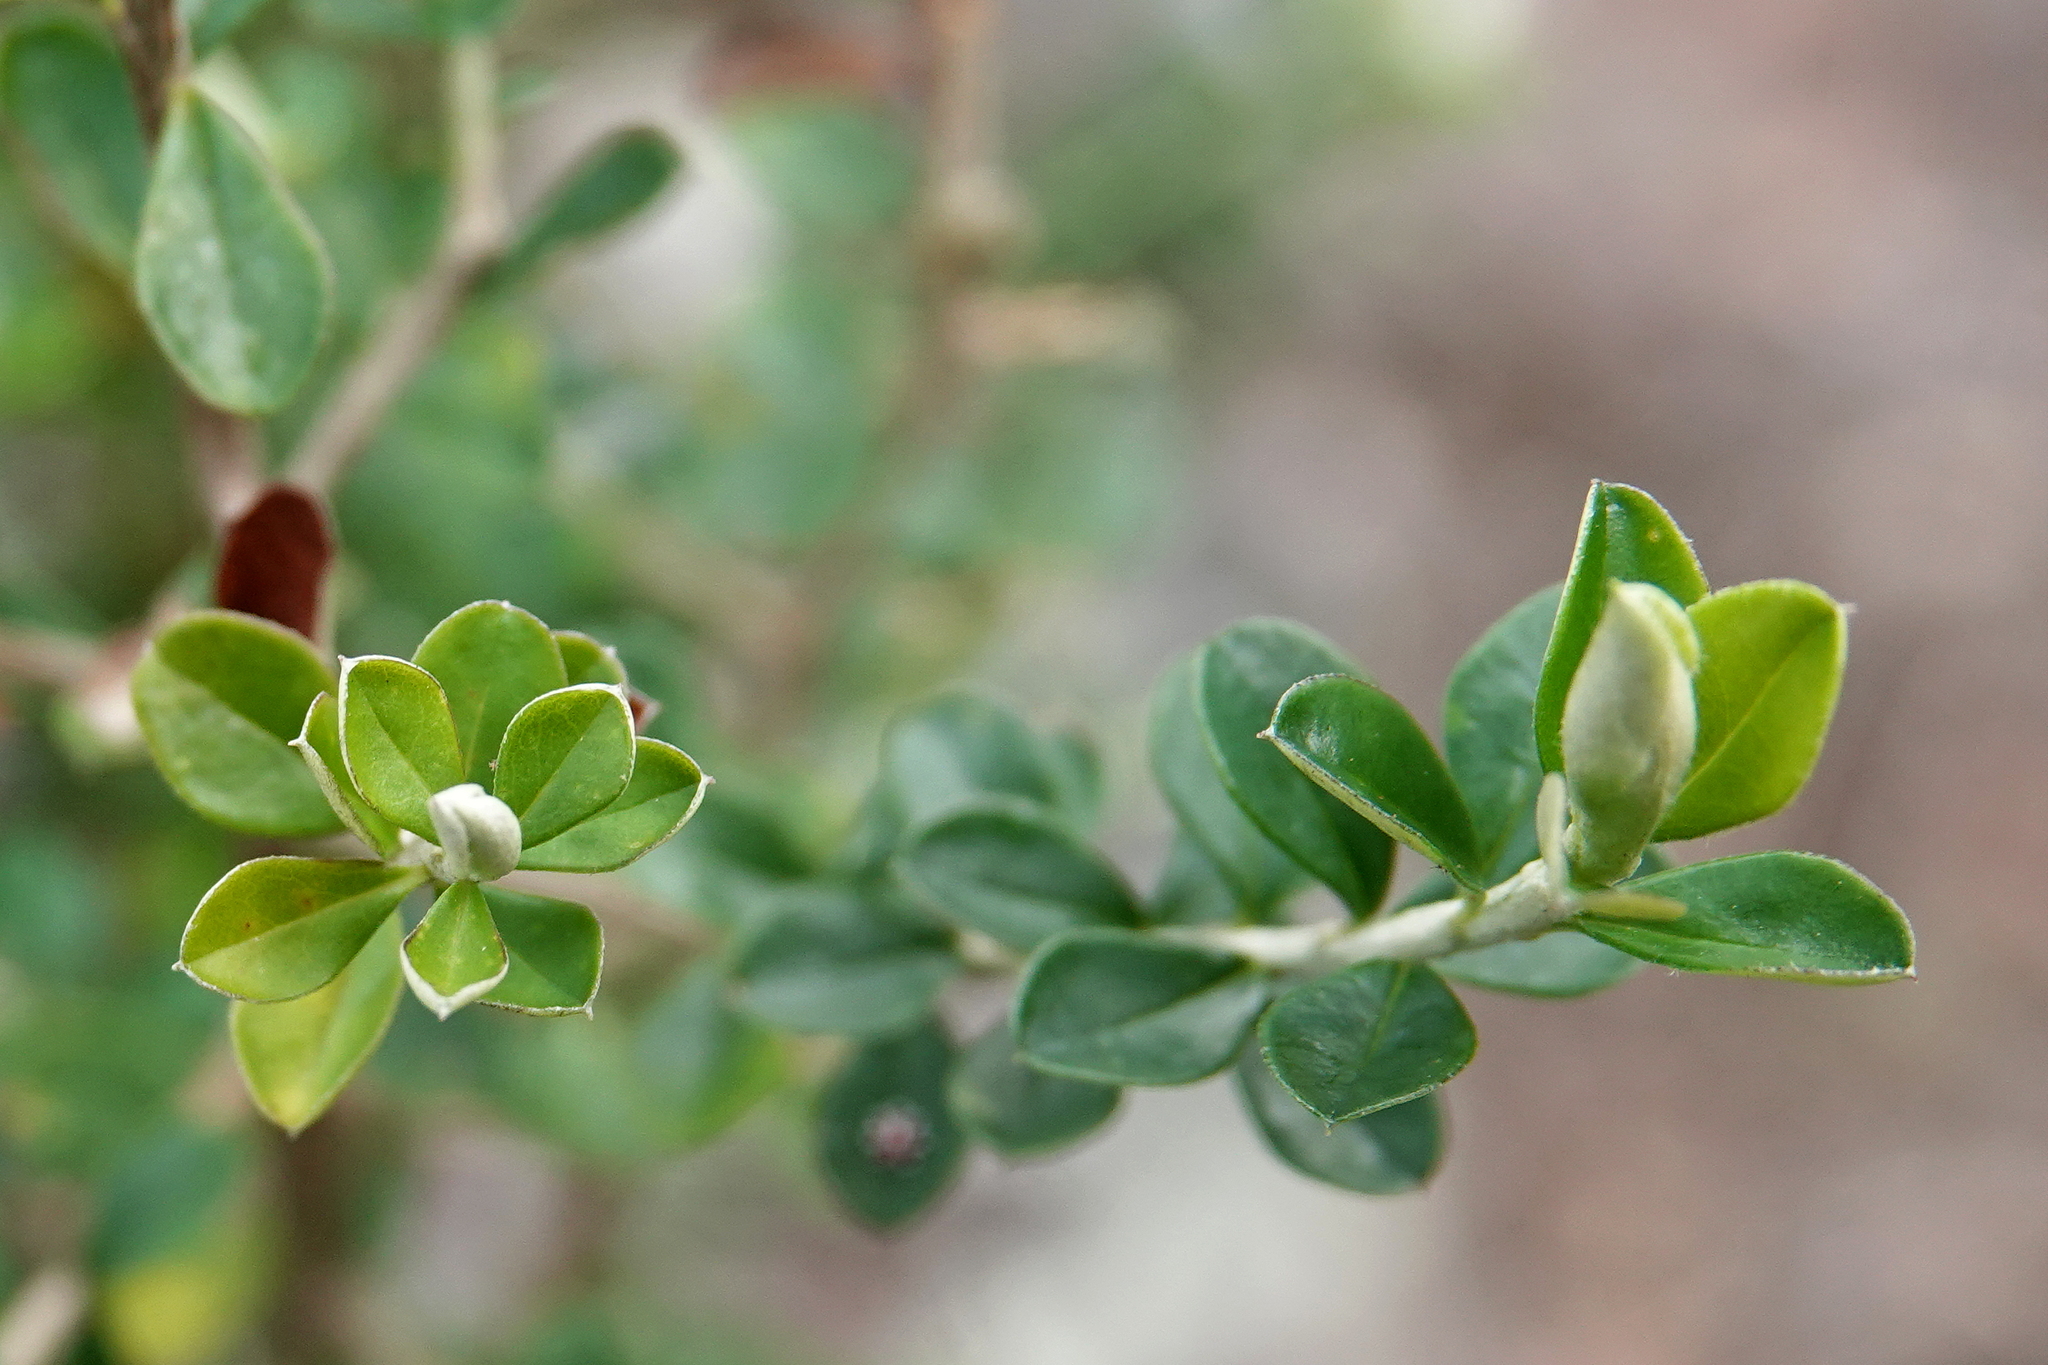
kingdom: Plantae
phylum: Tracheophyta
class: Magnoliopsida
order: Asterales
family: Asteraceae
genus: Ozothamnus
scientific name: Ozothamnus obcordatus
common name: Grey everlasting
